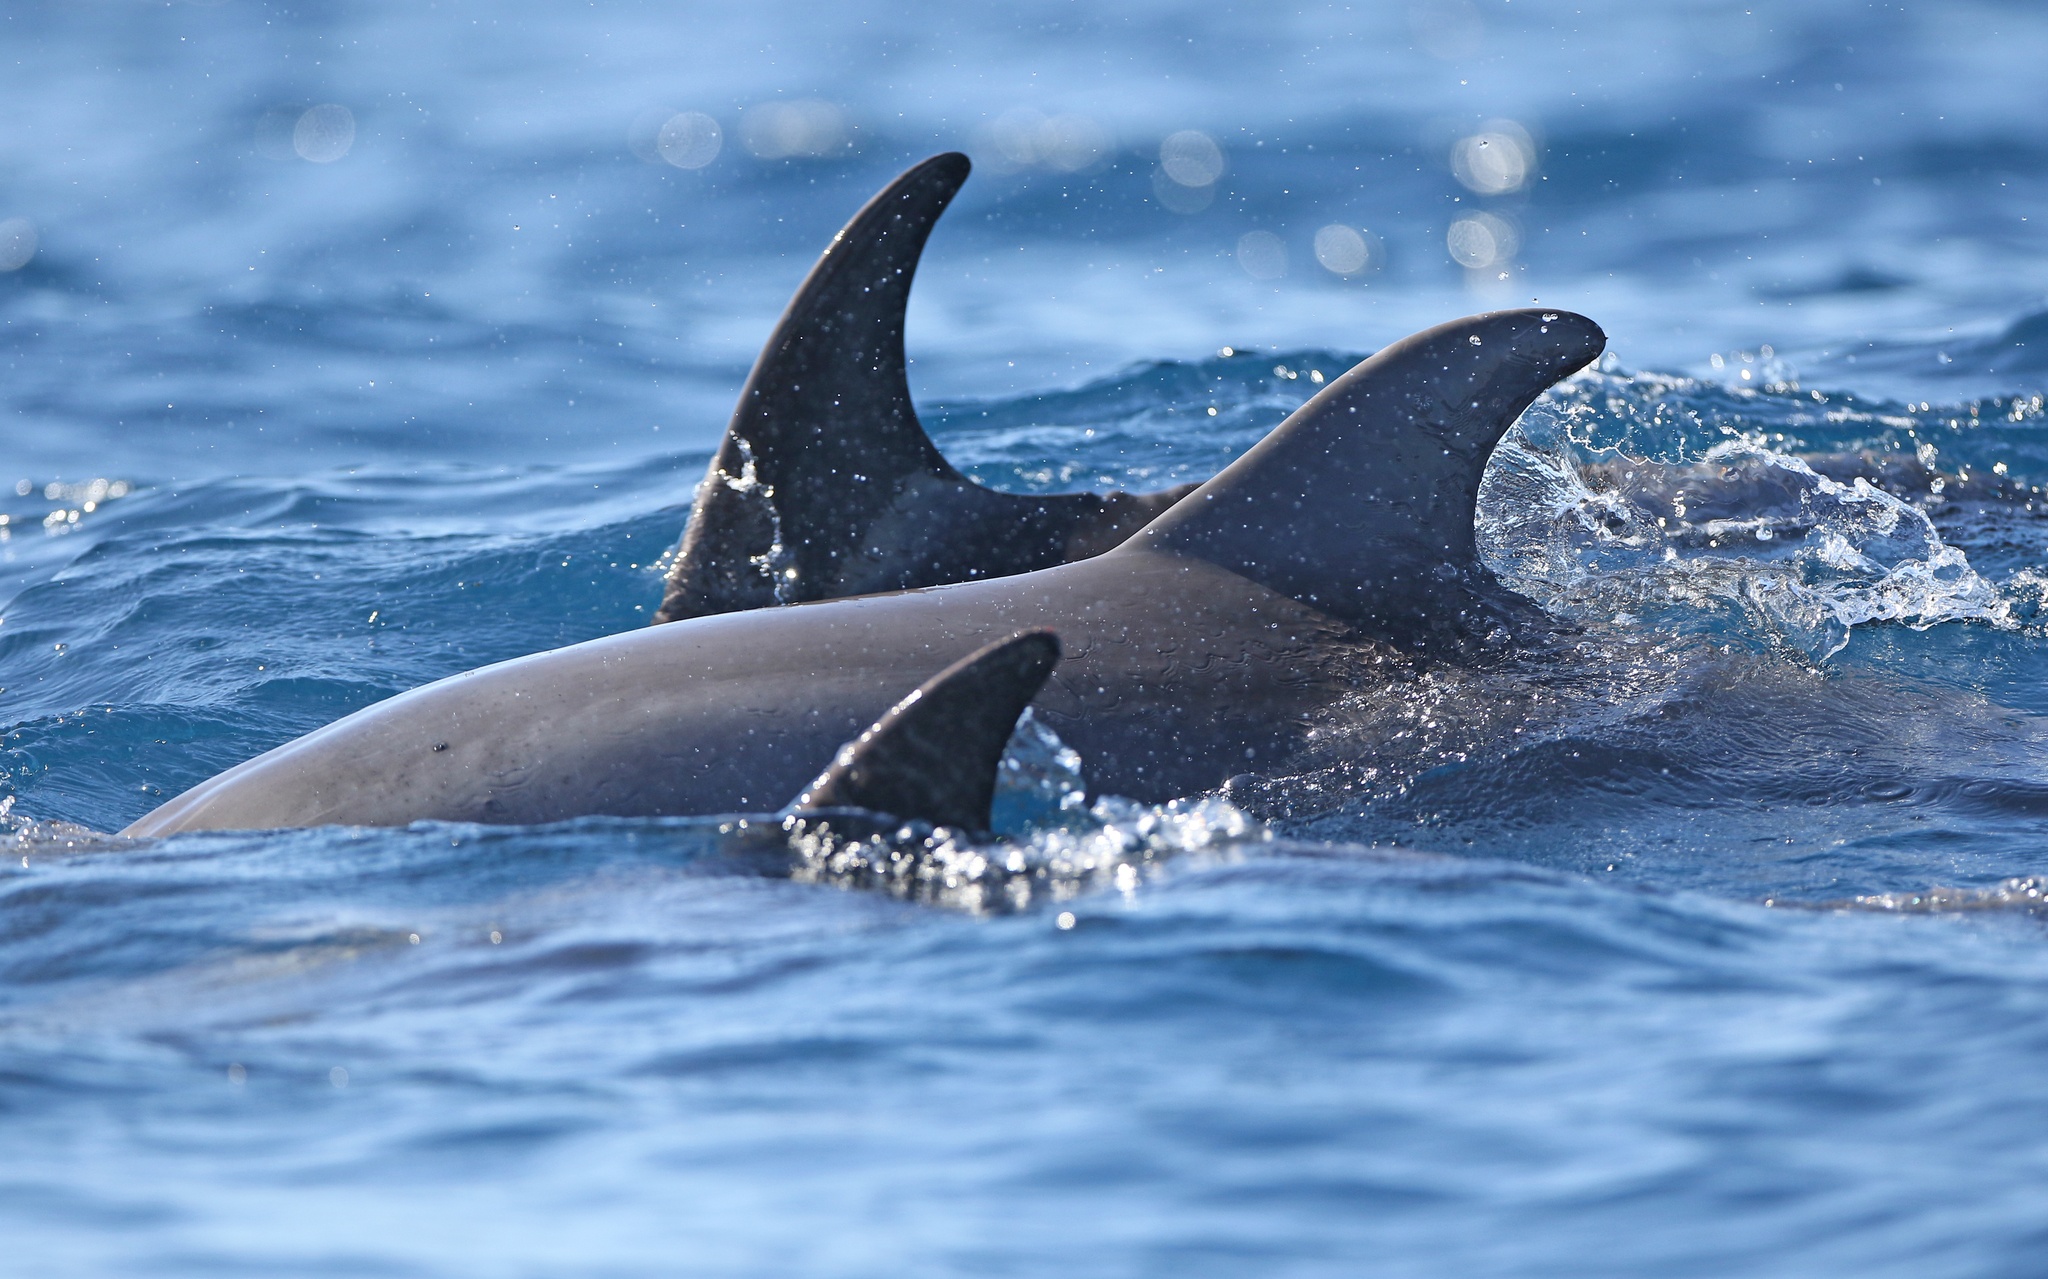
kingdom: Animalia
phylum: Chordata
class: Mammalia
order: Cetacea
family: Delphinidae
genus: Tursiops
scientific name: Tursiops truncatus
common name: Bottlenose dolphin
